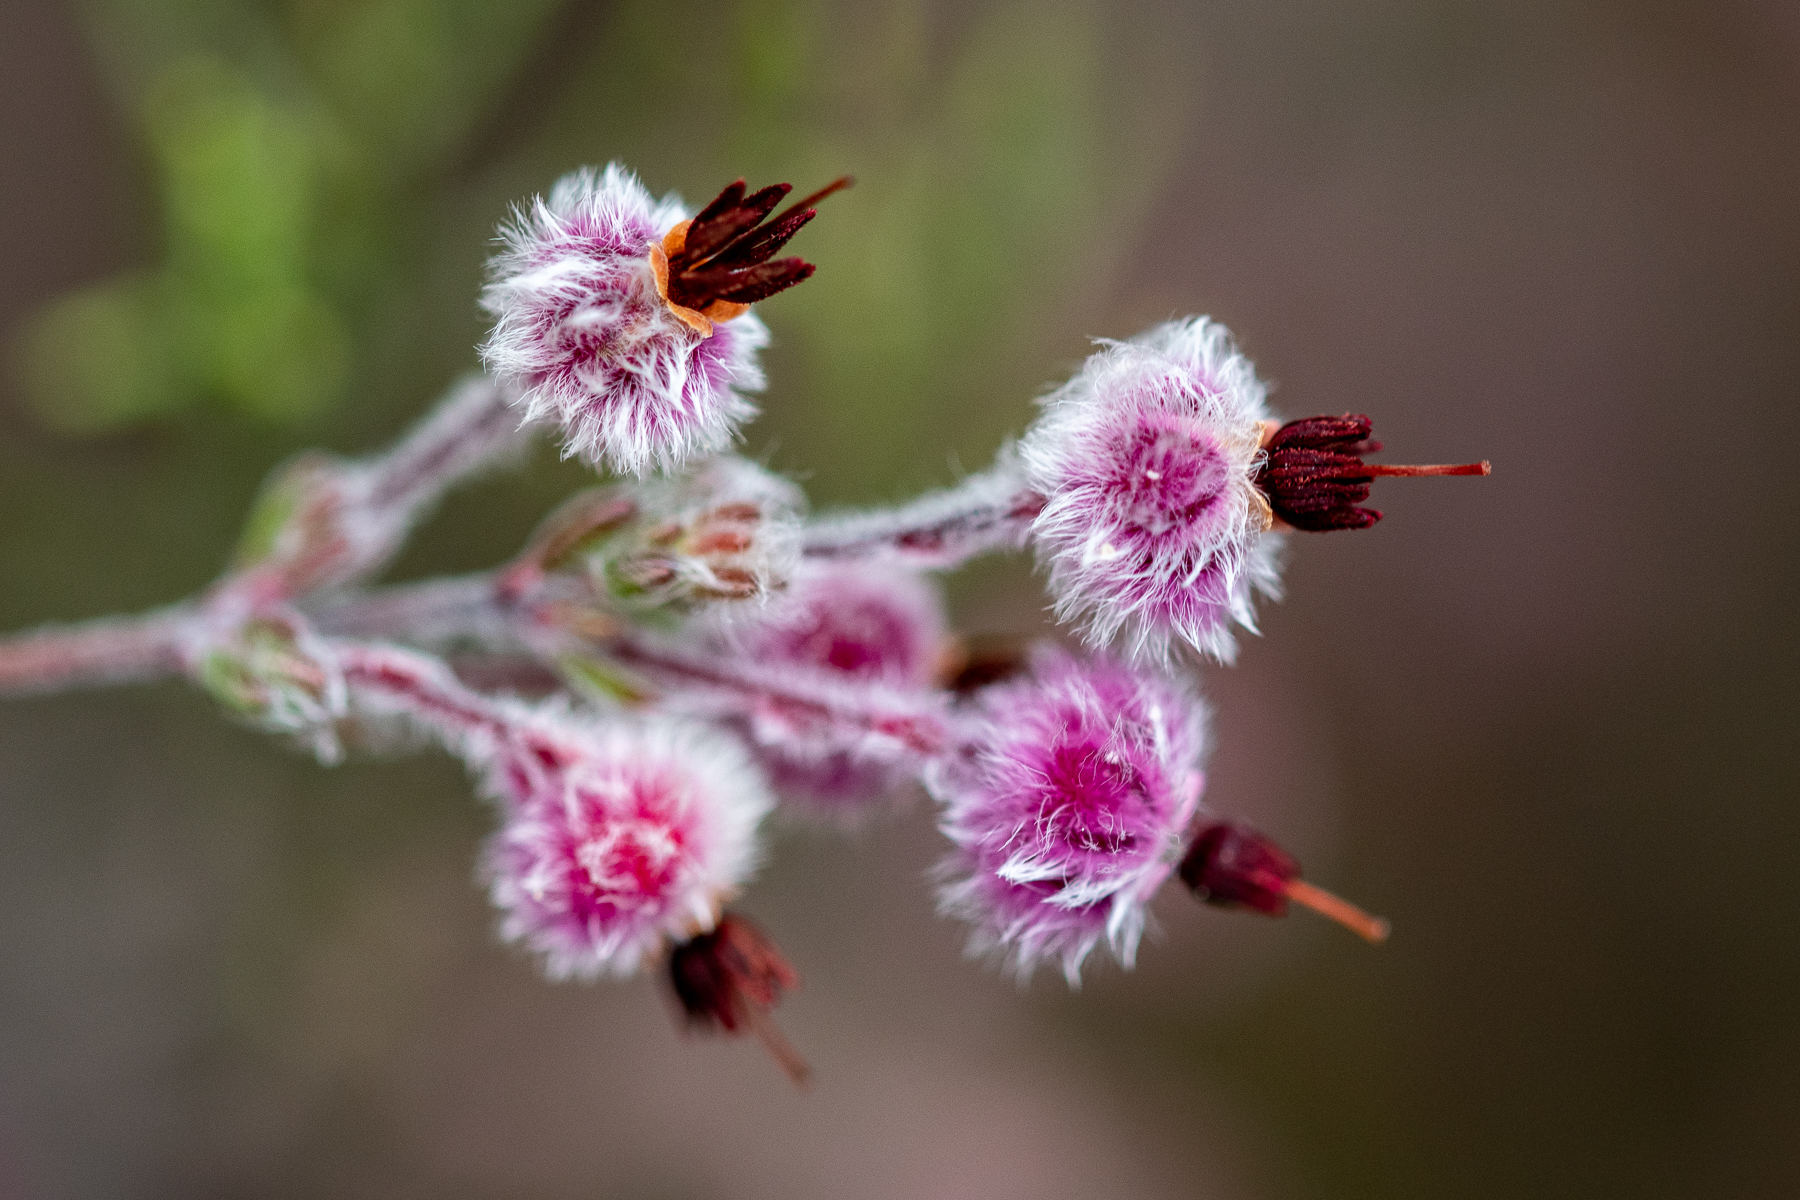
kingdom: Plantae
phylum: Tracheophyta
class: Magnoliopsida
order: Ericales
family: Ericaceae
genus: Erica
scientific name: Erica bruniades
